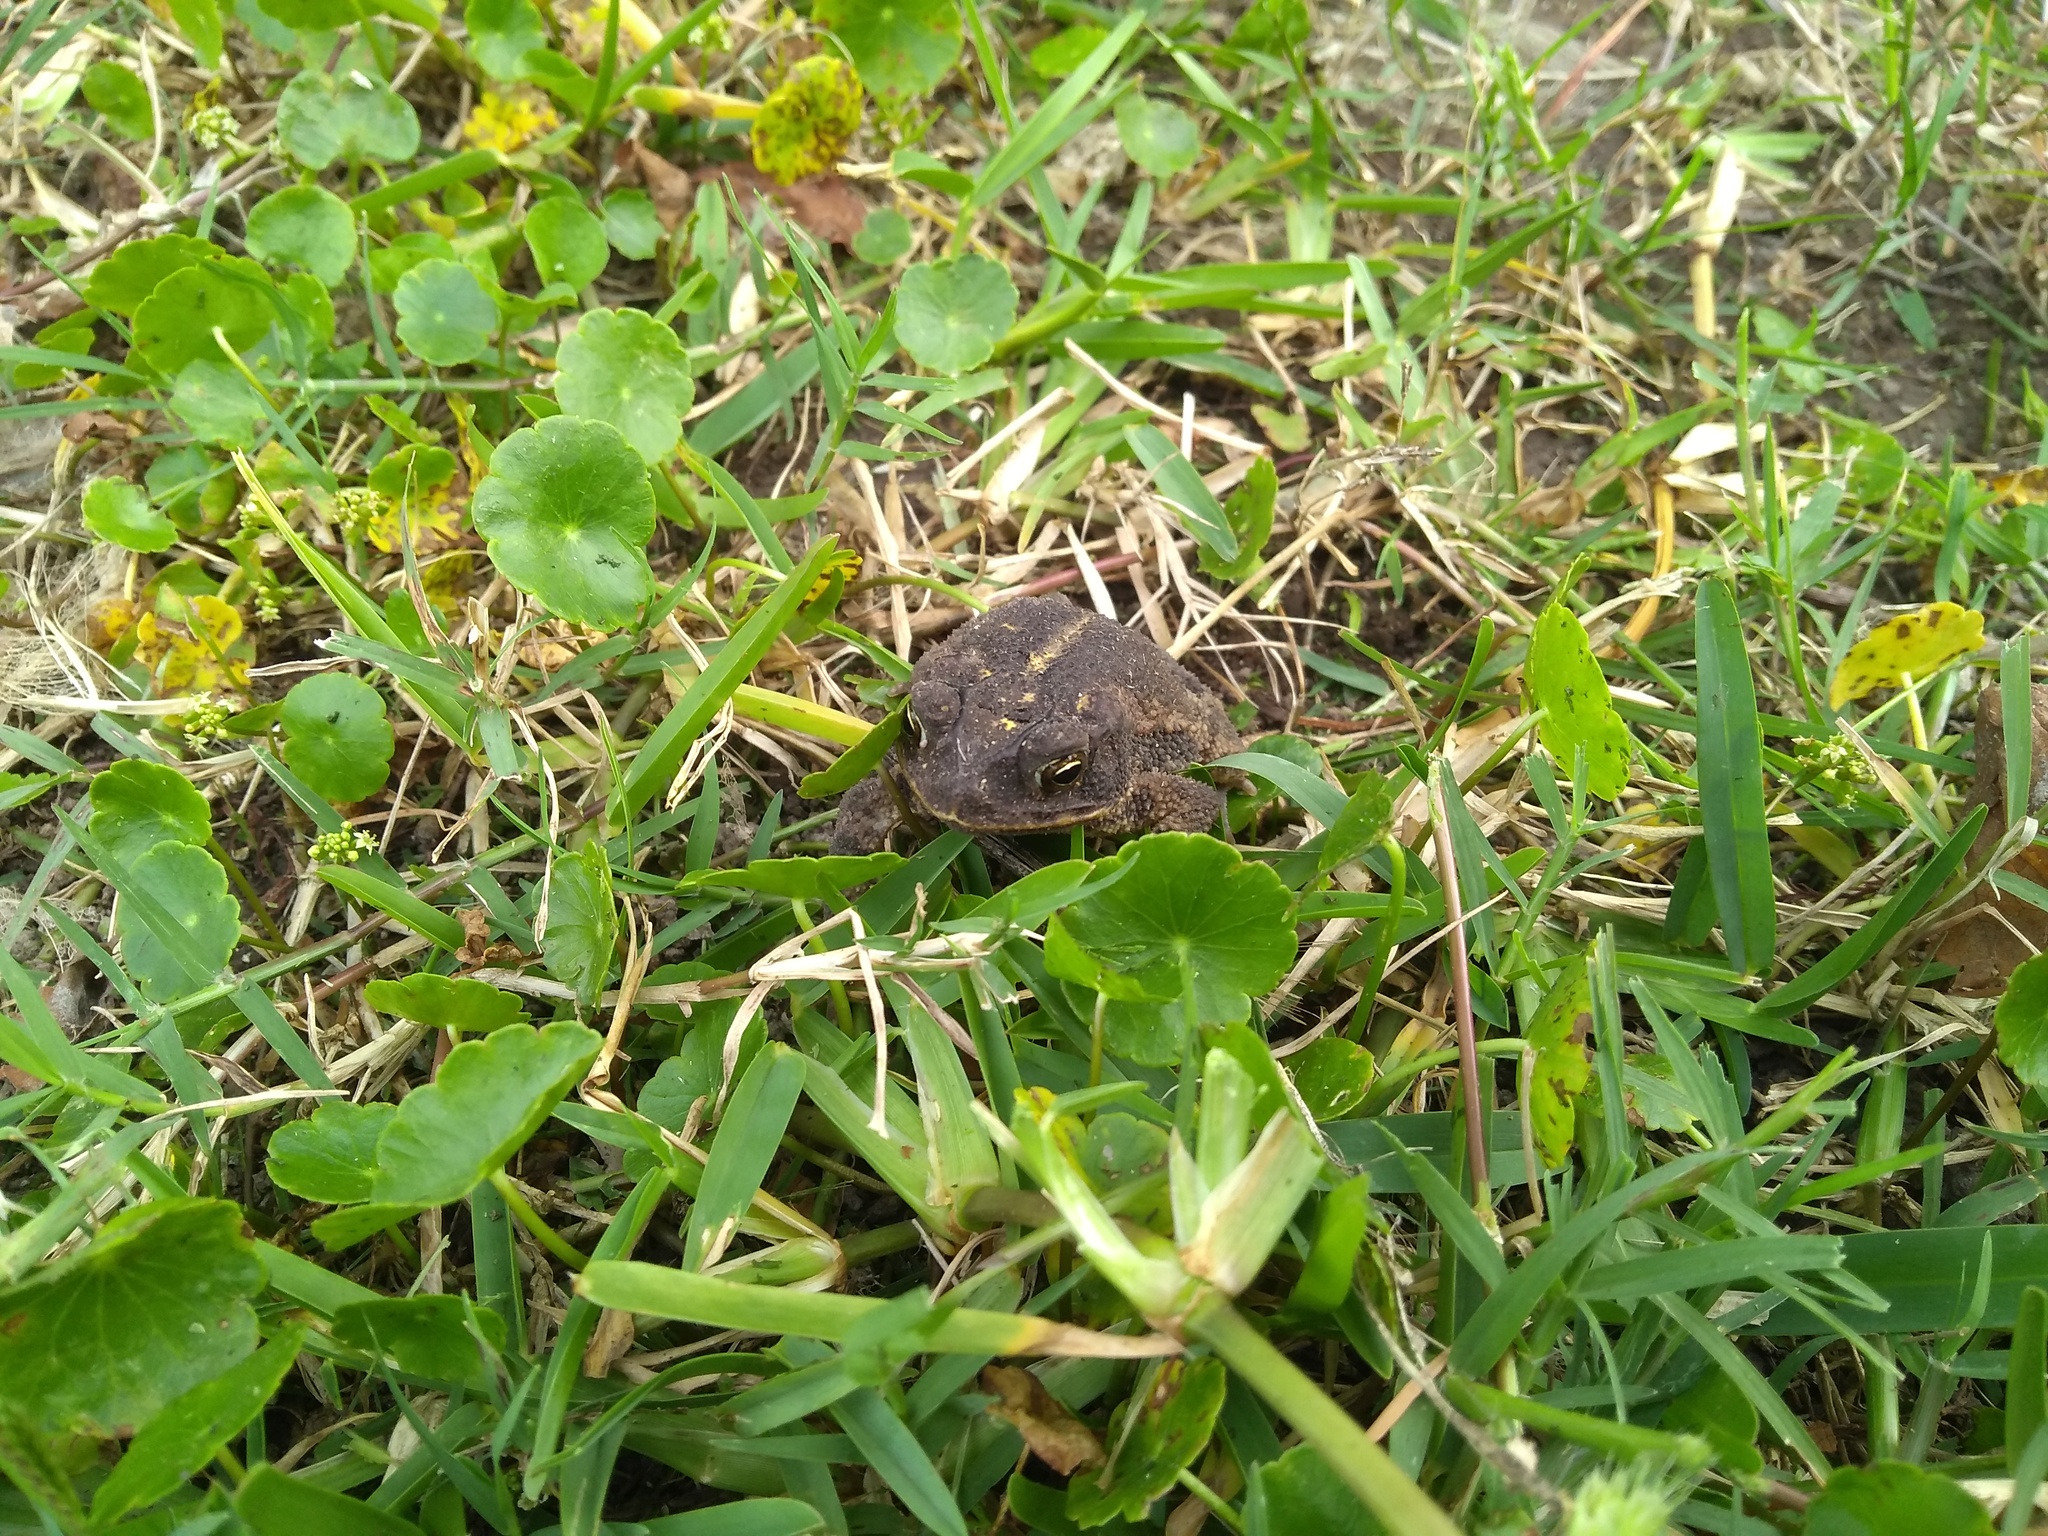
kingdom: Animalia
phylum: Chordata
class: Amphibia
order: Anura
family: Bufonidae
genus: Incilius
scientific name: Incilius nebulifer
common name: Gulf coast toad
